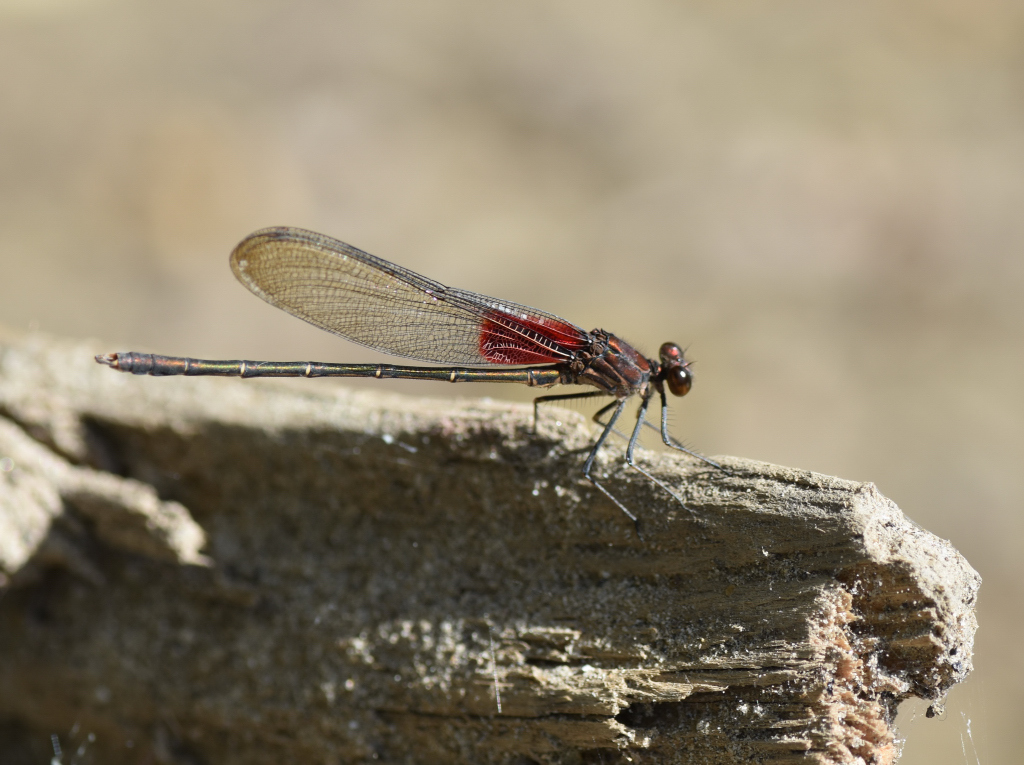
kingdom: Animalia
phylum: Arthropoda
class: Insecta
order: Odonata
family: Calopterygidae
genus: Hetaerina
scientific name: Hetaerina americana
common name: American rubyspot
